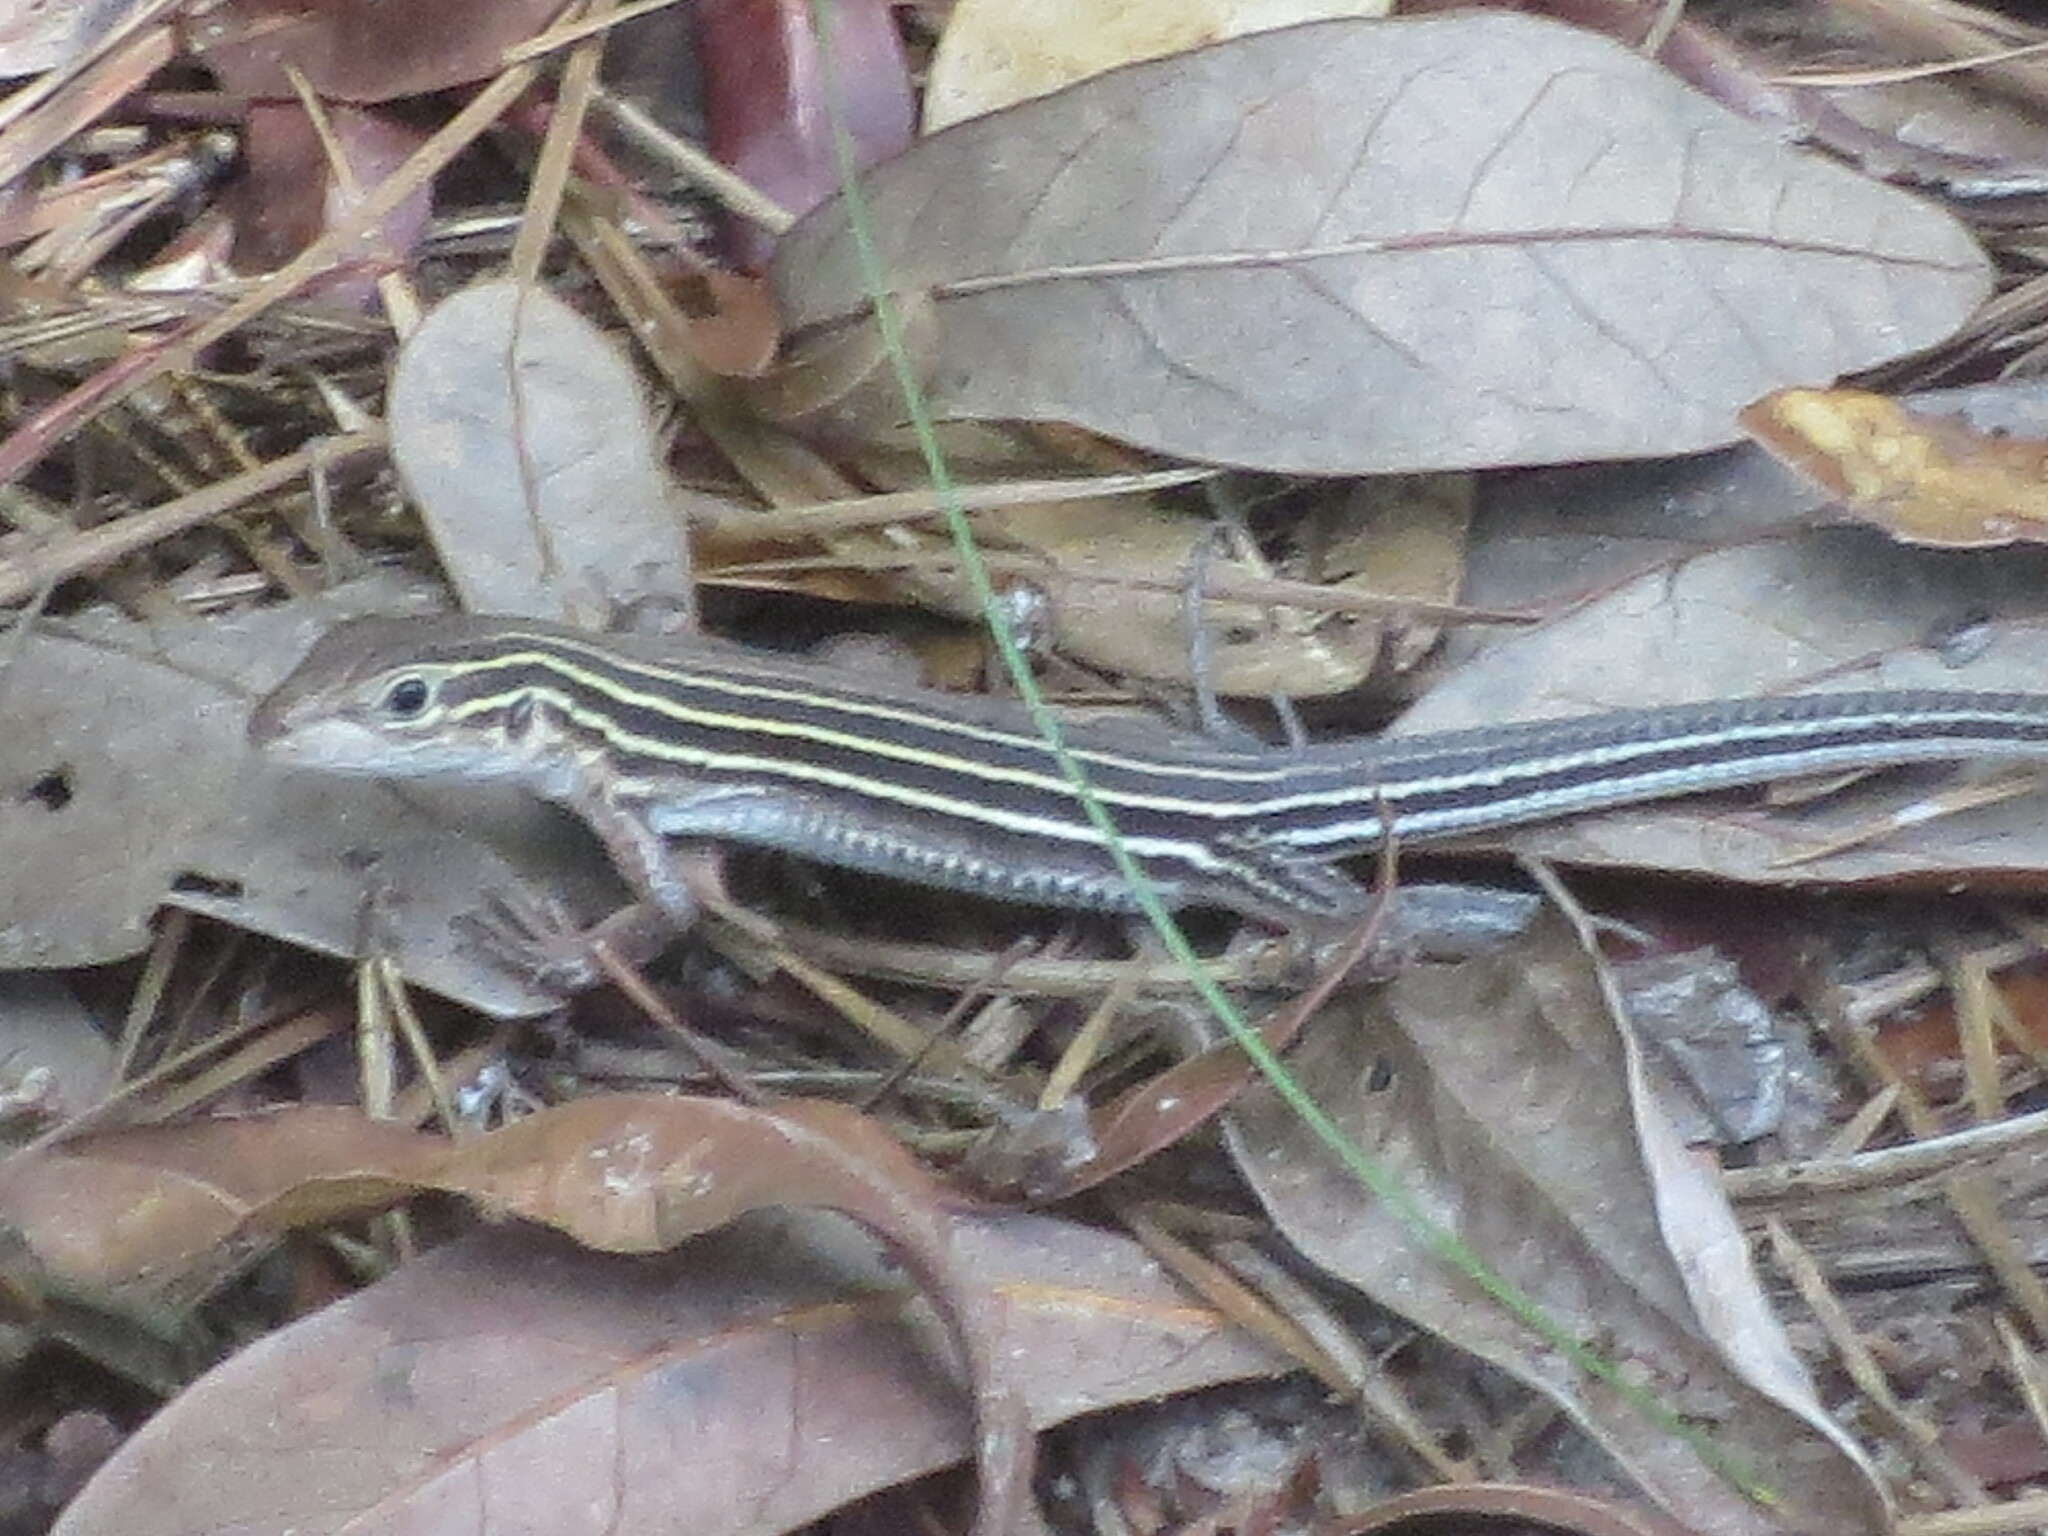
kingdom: Animalia
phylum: Chordata
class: Squamata
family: Teiidae
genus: Aspidoscelis
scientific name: Aspidoscelis sexlineatus
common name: Six-lined racerunner
